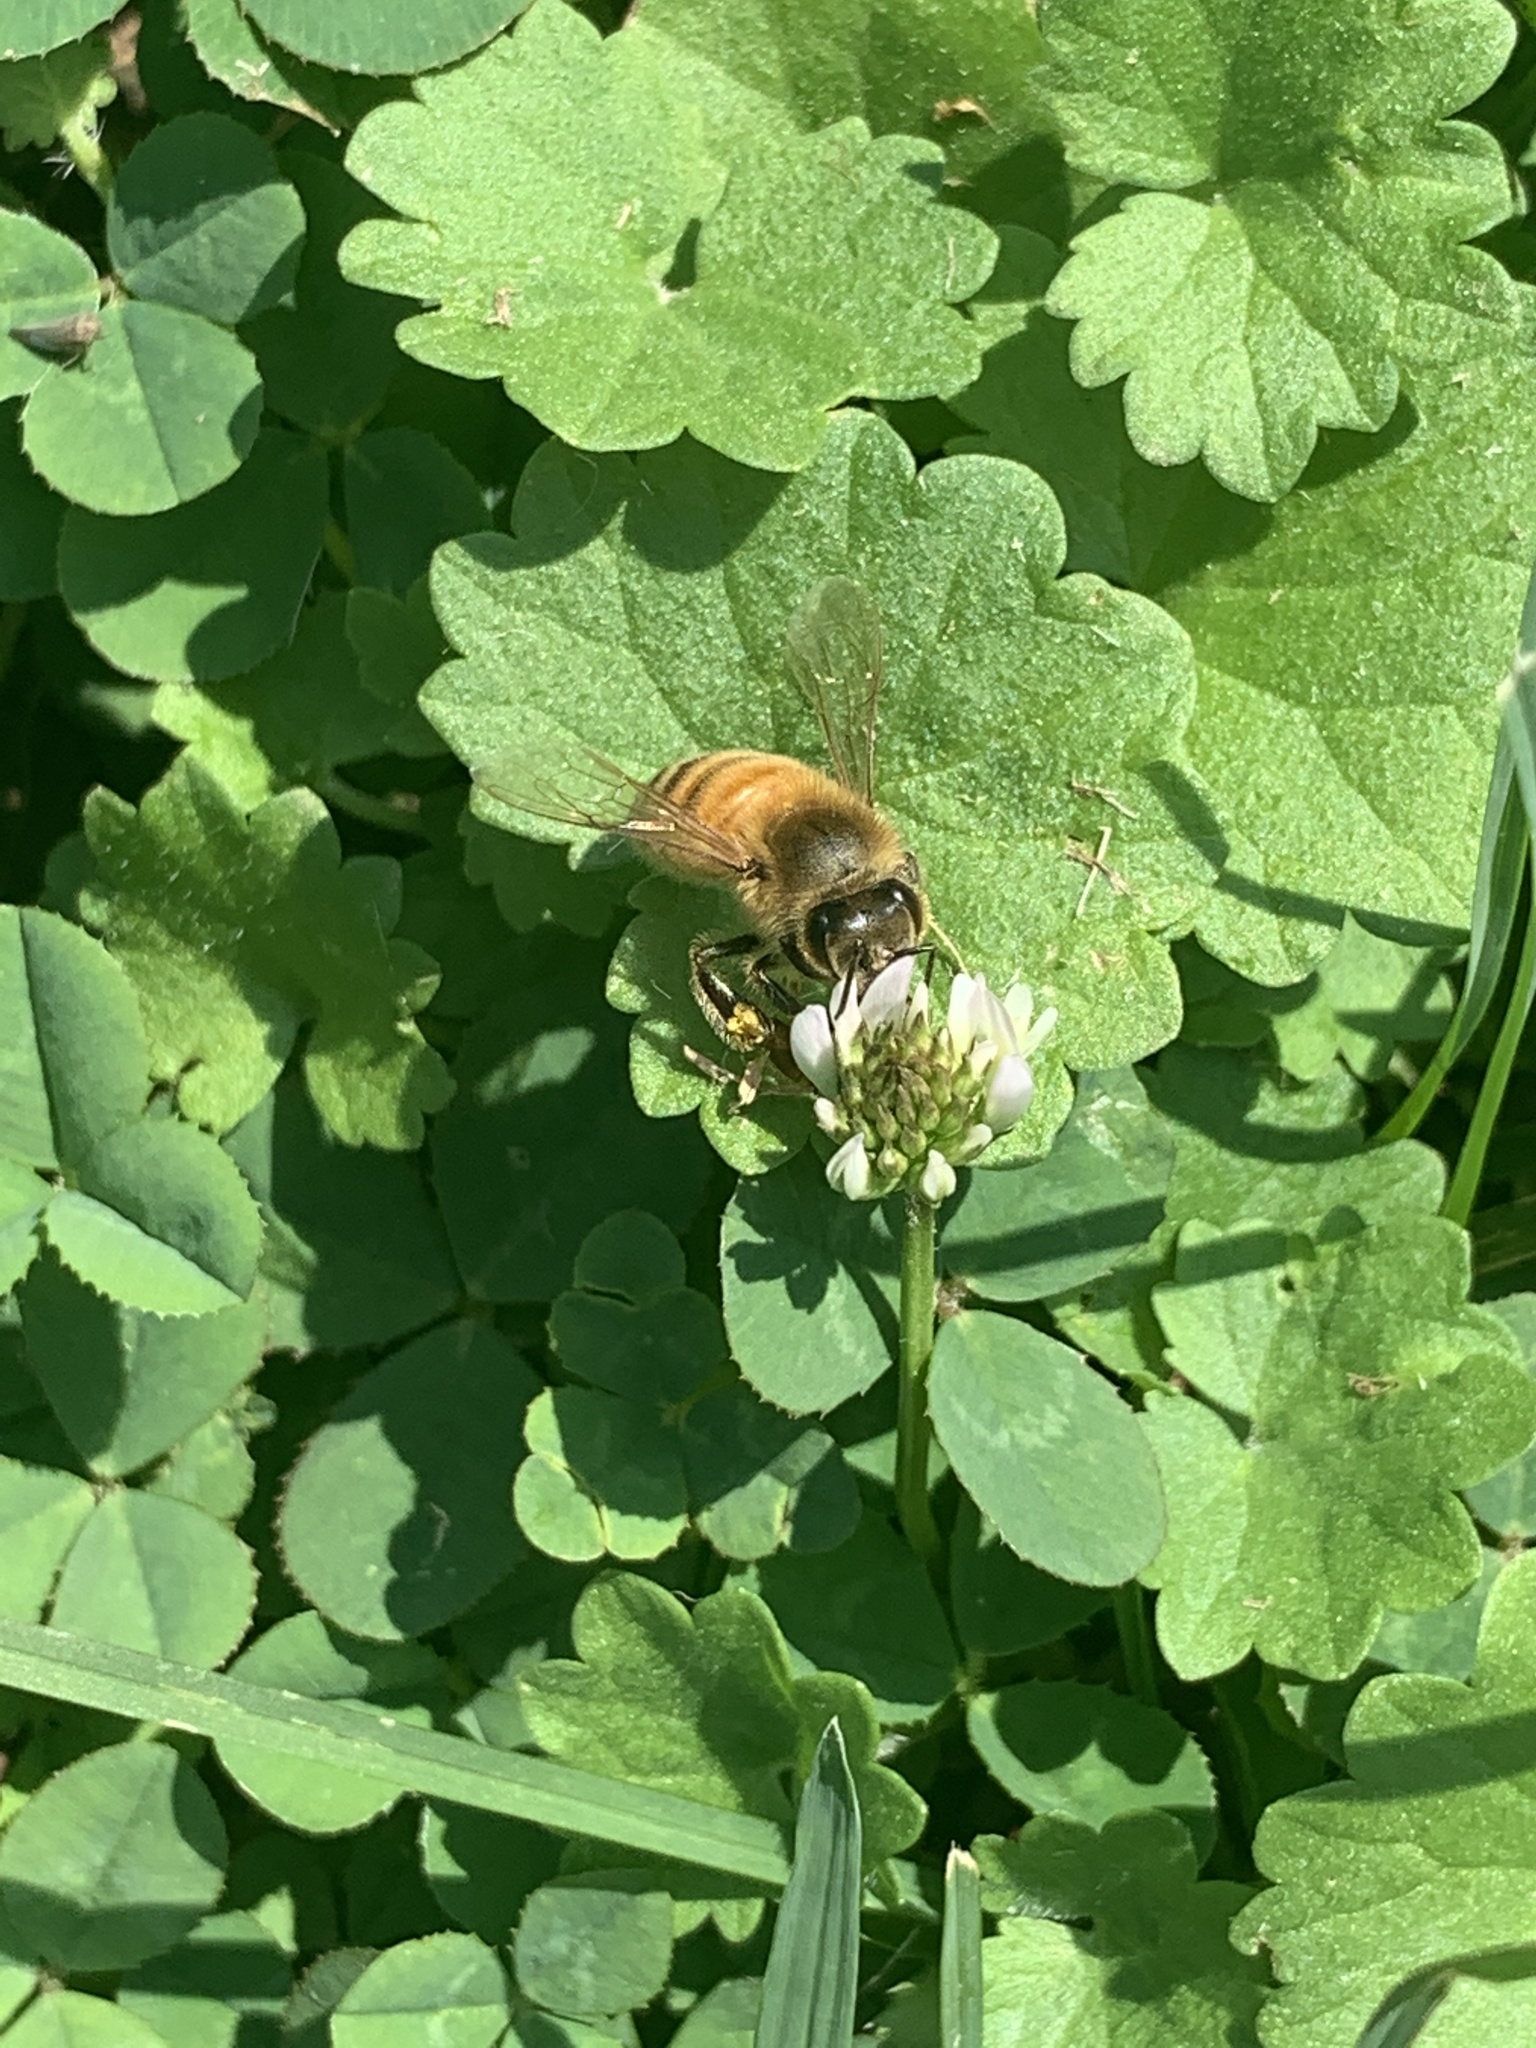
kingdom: Animalia
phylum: Arthropoda
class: Insecta
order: Hymenoptera
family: Apidae
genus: Apis
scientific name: Apis mellifera
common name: Honey bee
